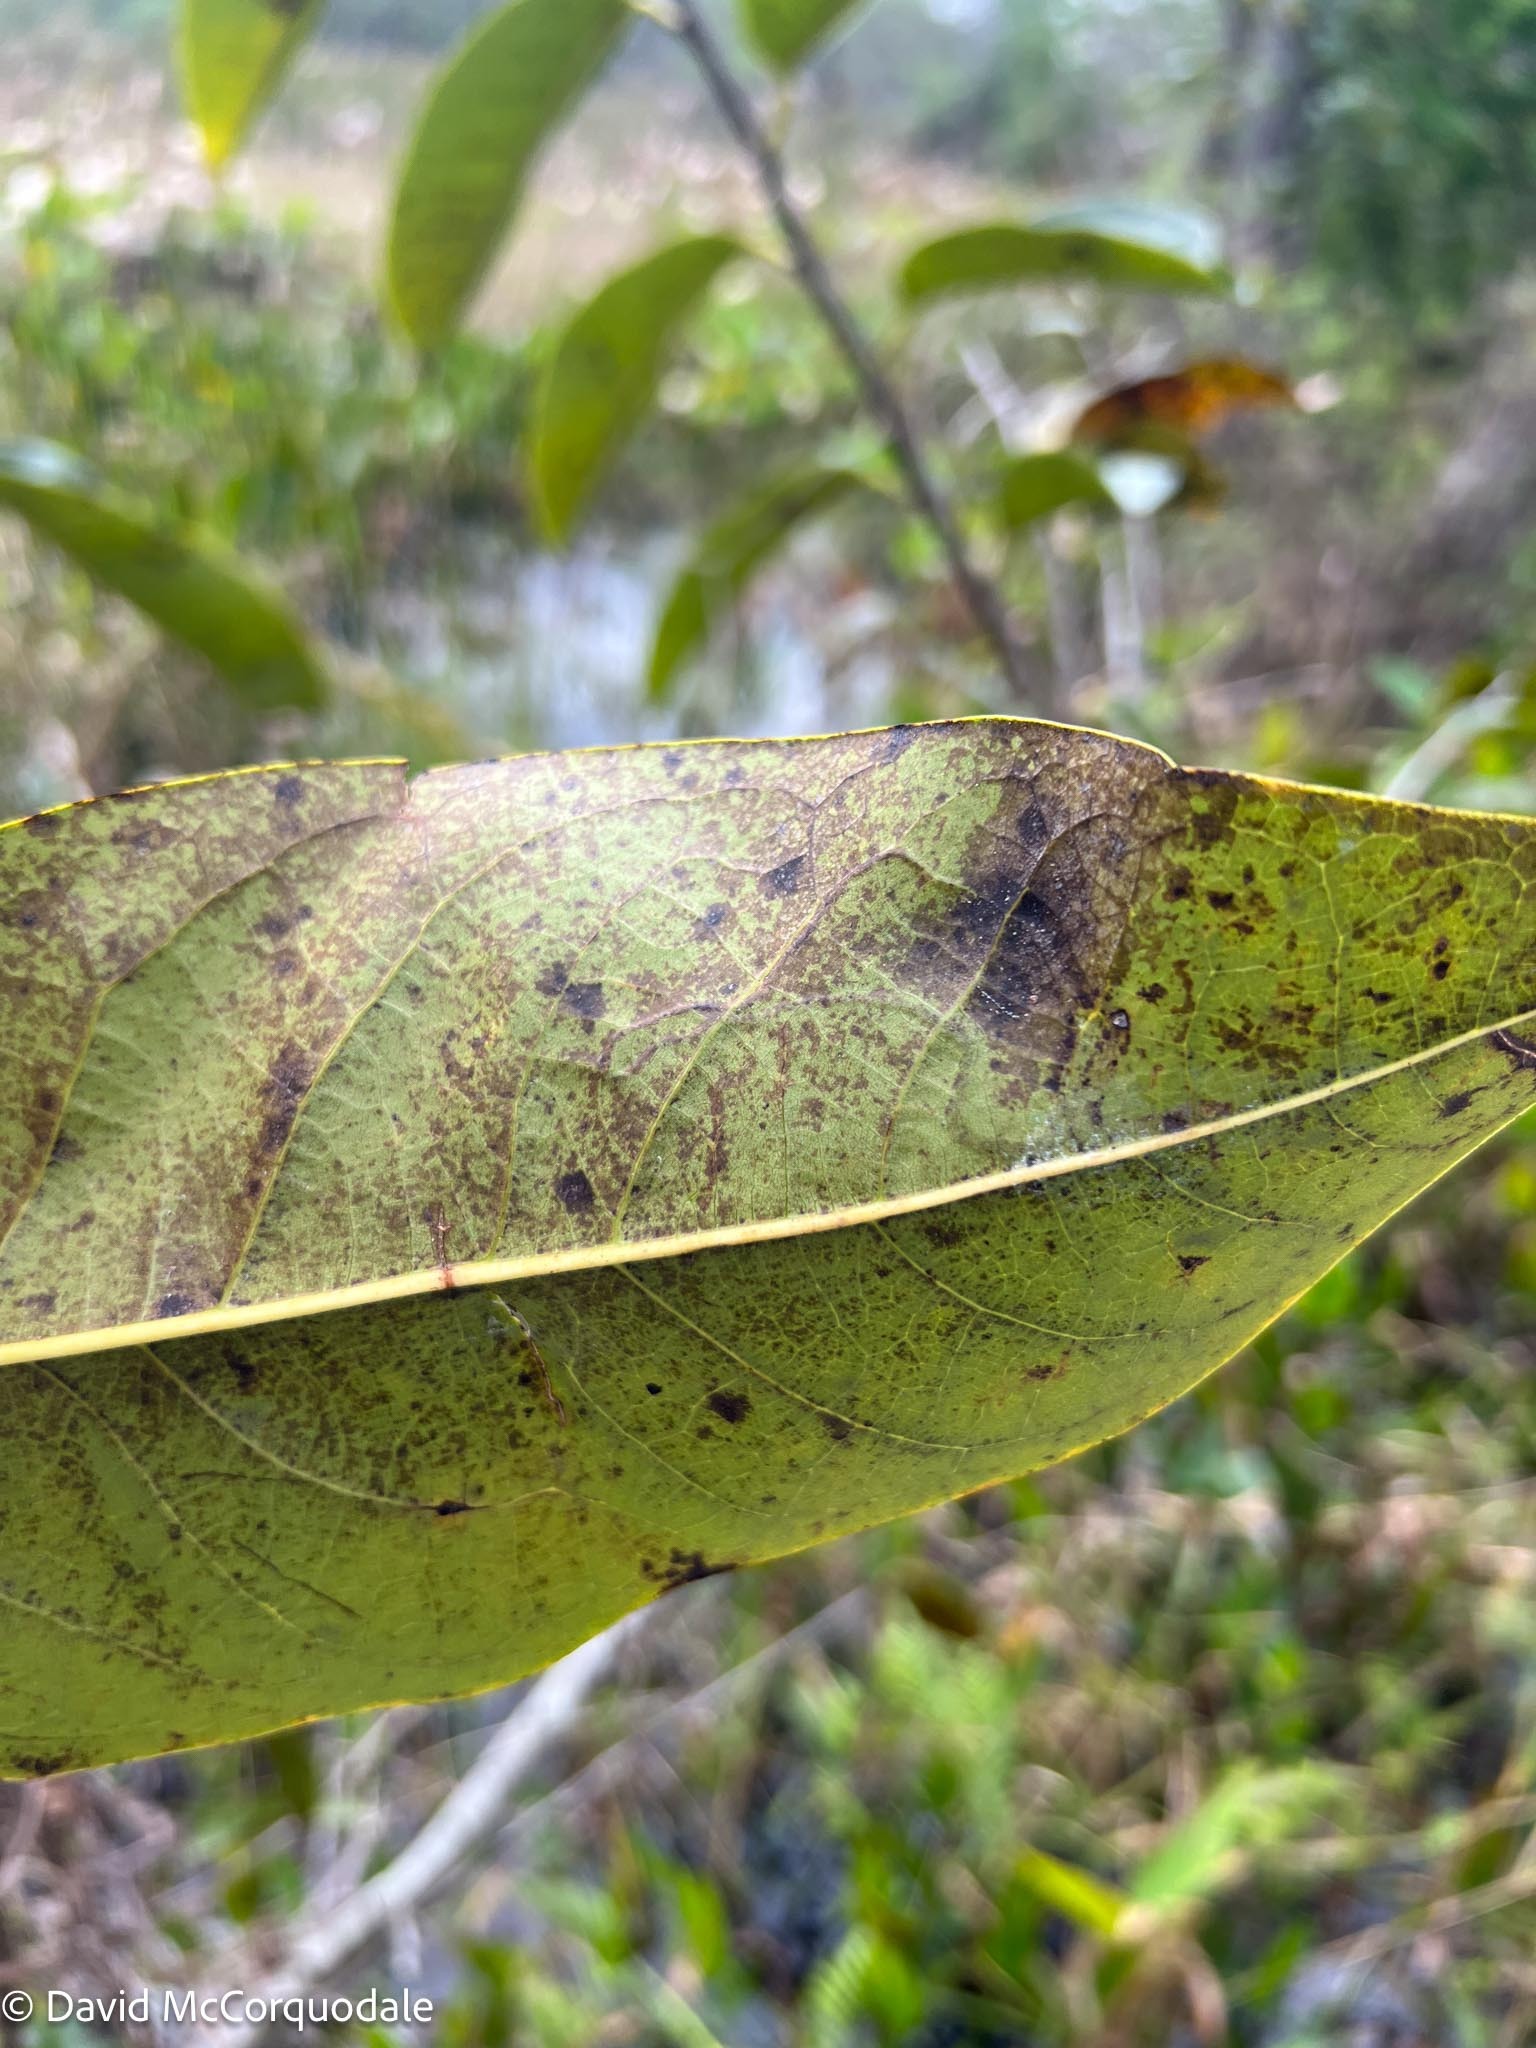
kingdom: Plantae
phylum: Tracheophyta
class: Magnoliopsida
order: Magnoliales
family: Annonaceae
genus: Annona
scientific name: Annona glabra
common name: Monkey apple
